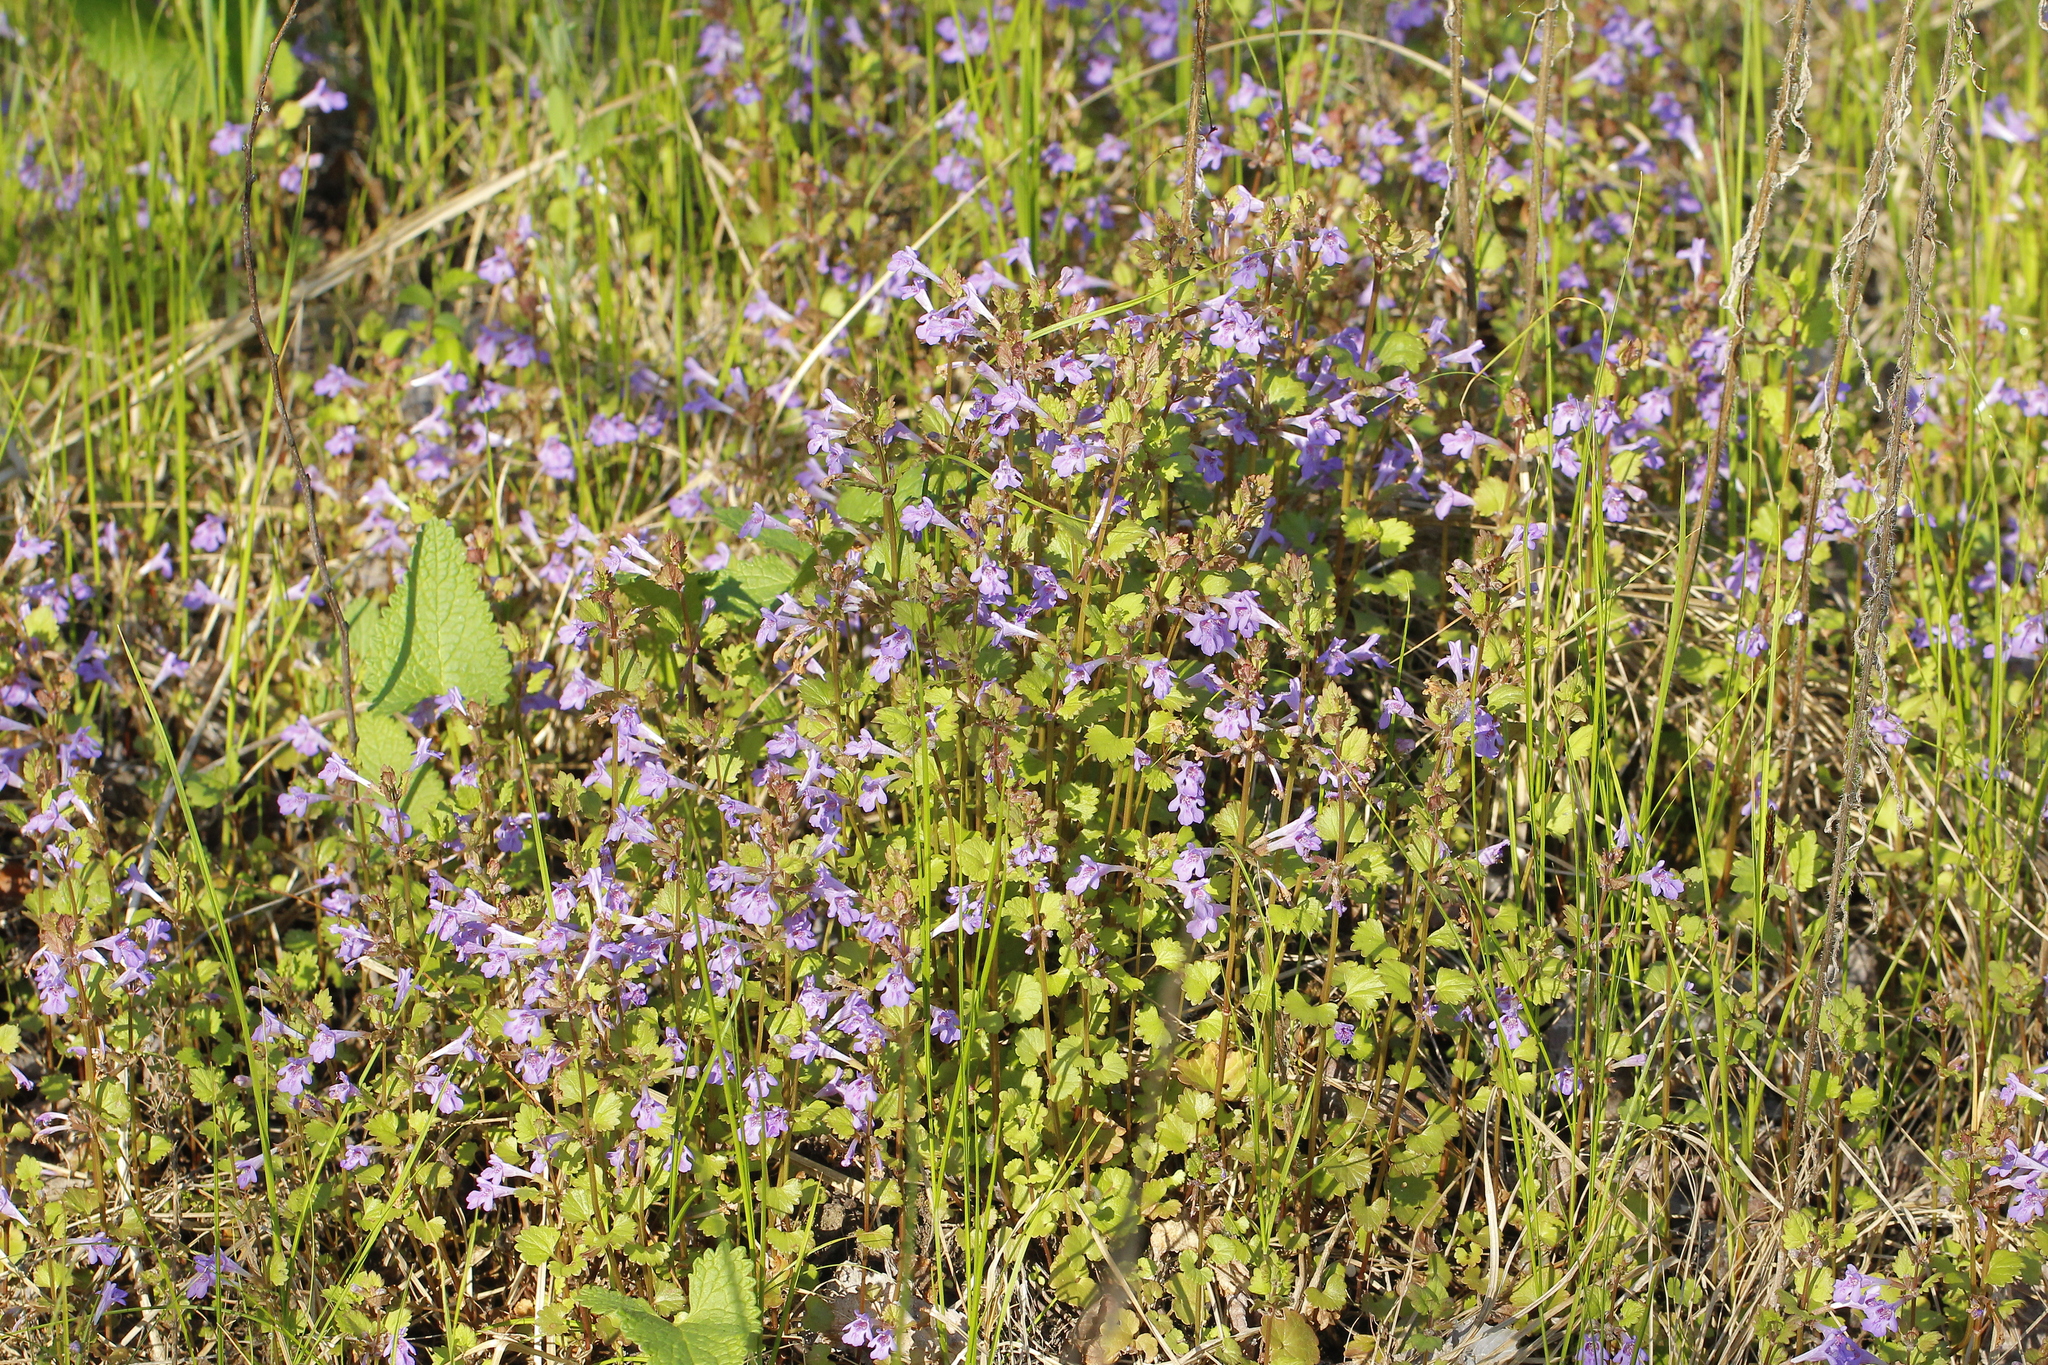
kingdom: Plantae
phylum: Tracheophyta
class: Magnoliopsida
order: Lamiales
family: Lamiaceae
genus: Glechoma
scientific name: Glechoma hederacea
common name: Ground ivy
